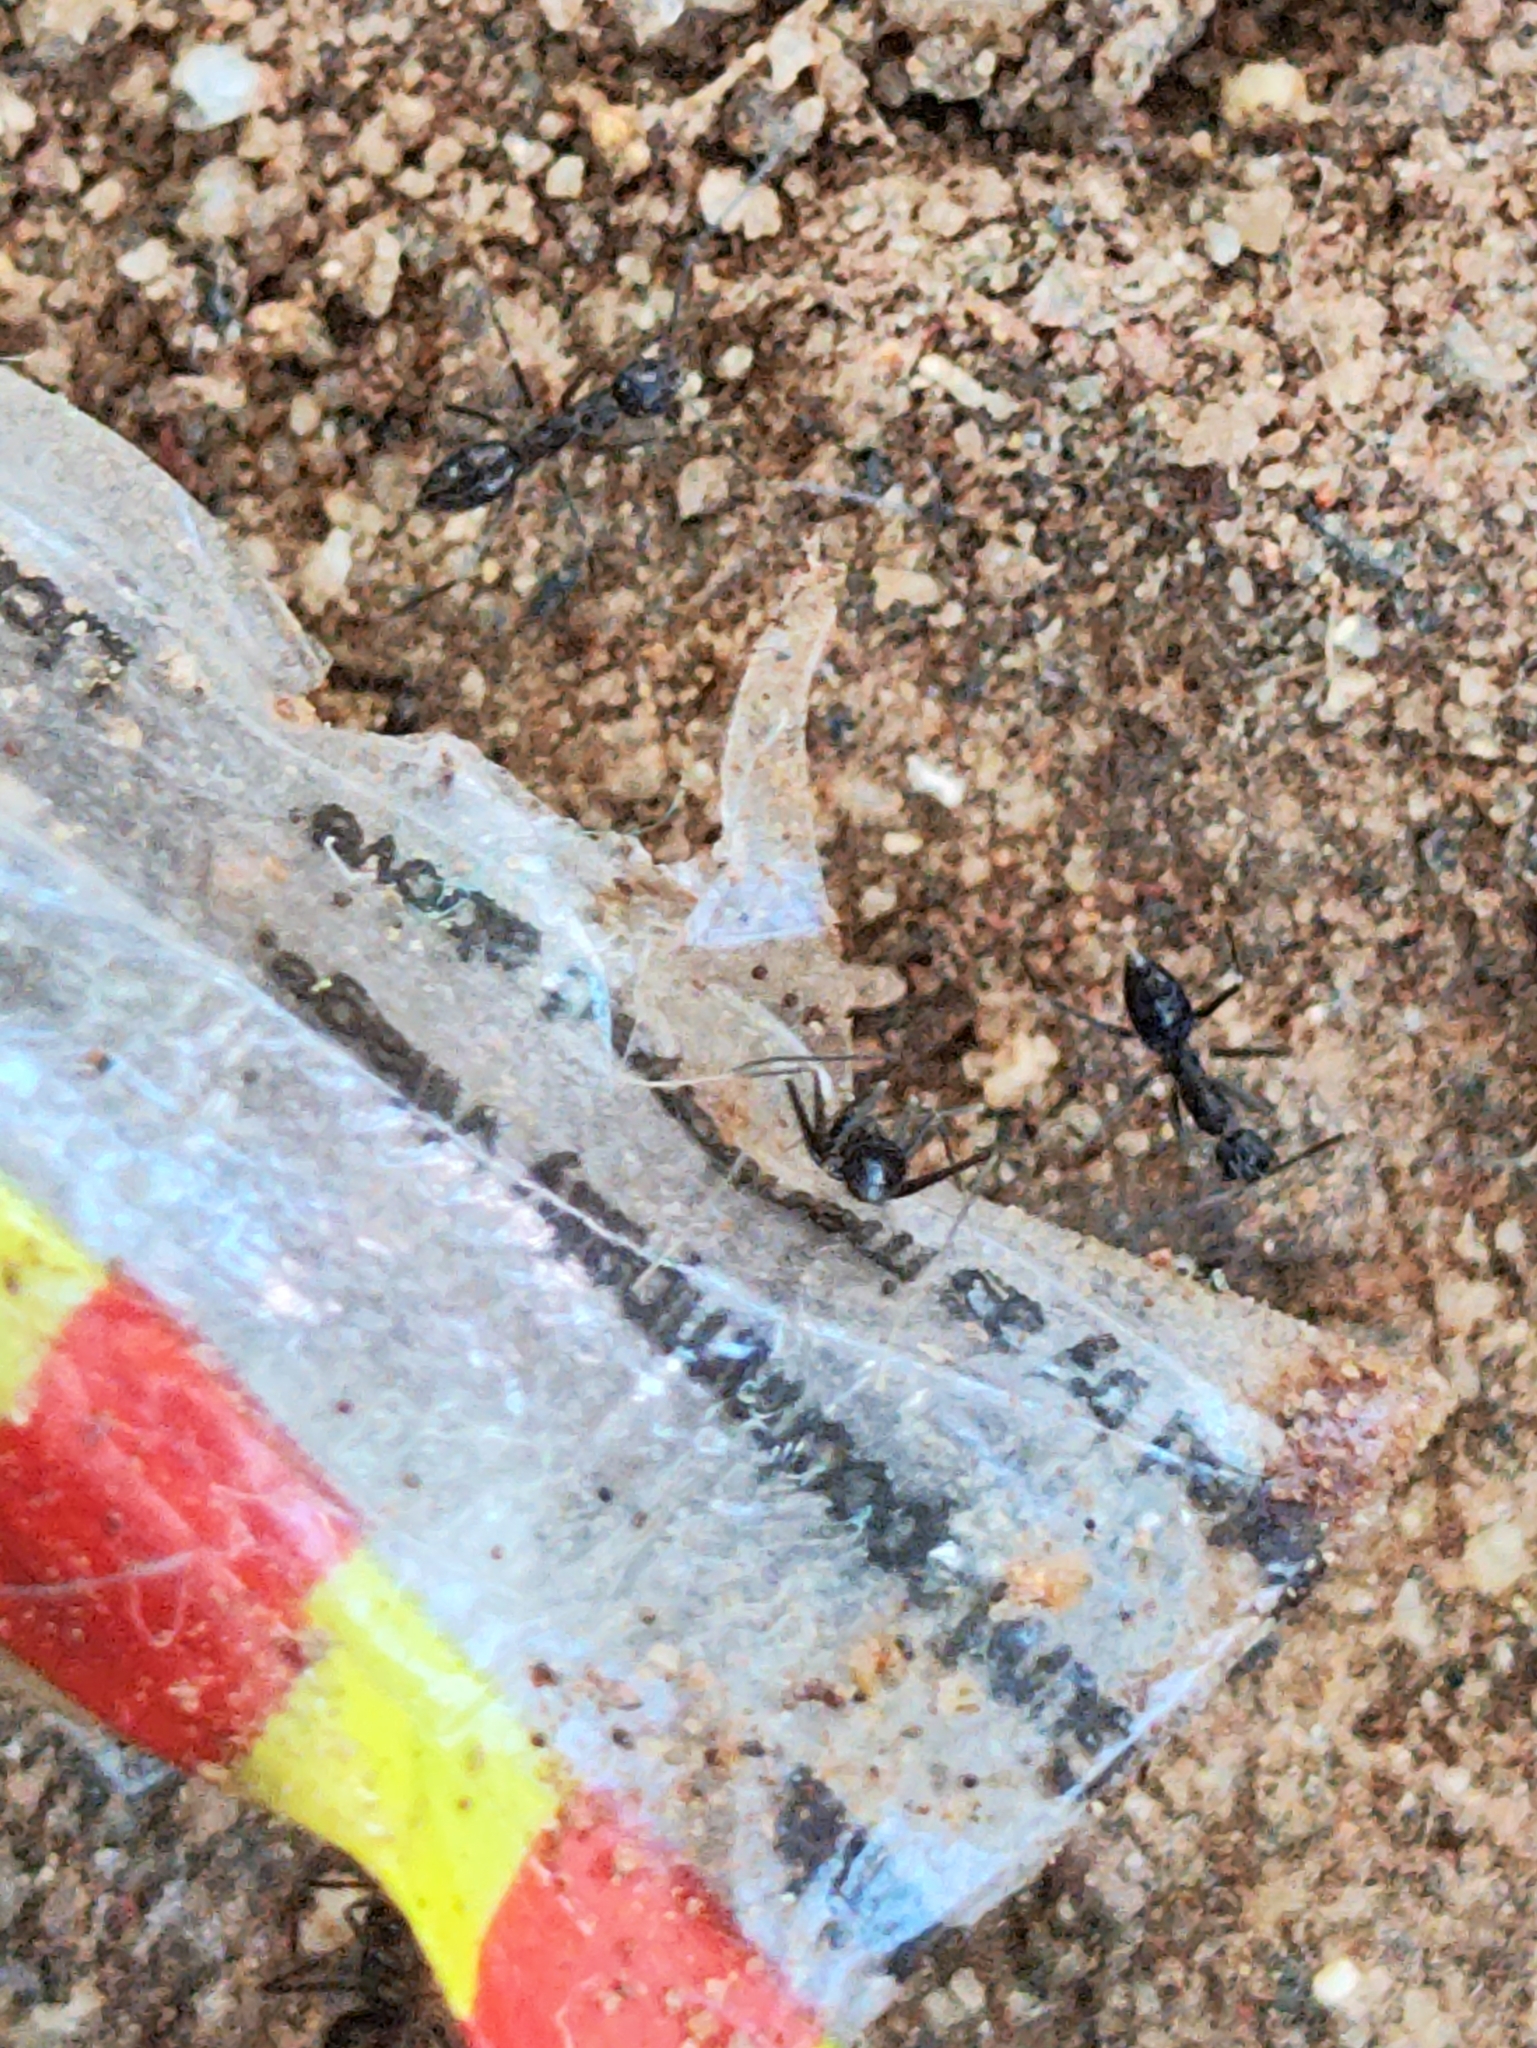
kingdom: Animalia
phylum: Arthropoda
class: Insecta
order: Hymenoptera
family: Formicidae
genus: Paratrechina
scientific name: Paratrechina longicornis
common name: Longhorned crazy ant
